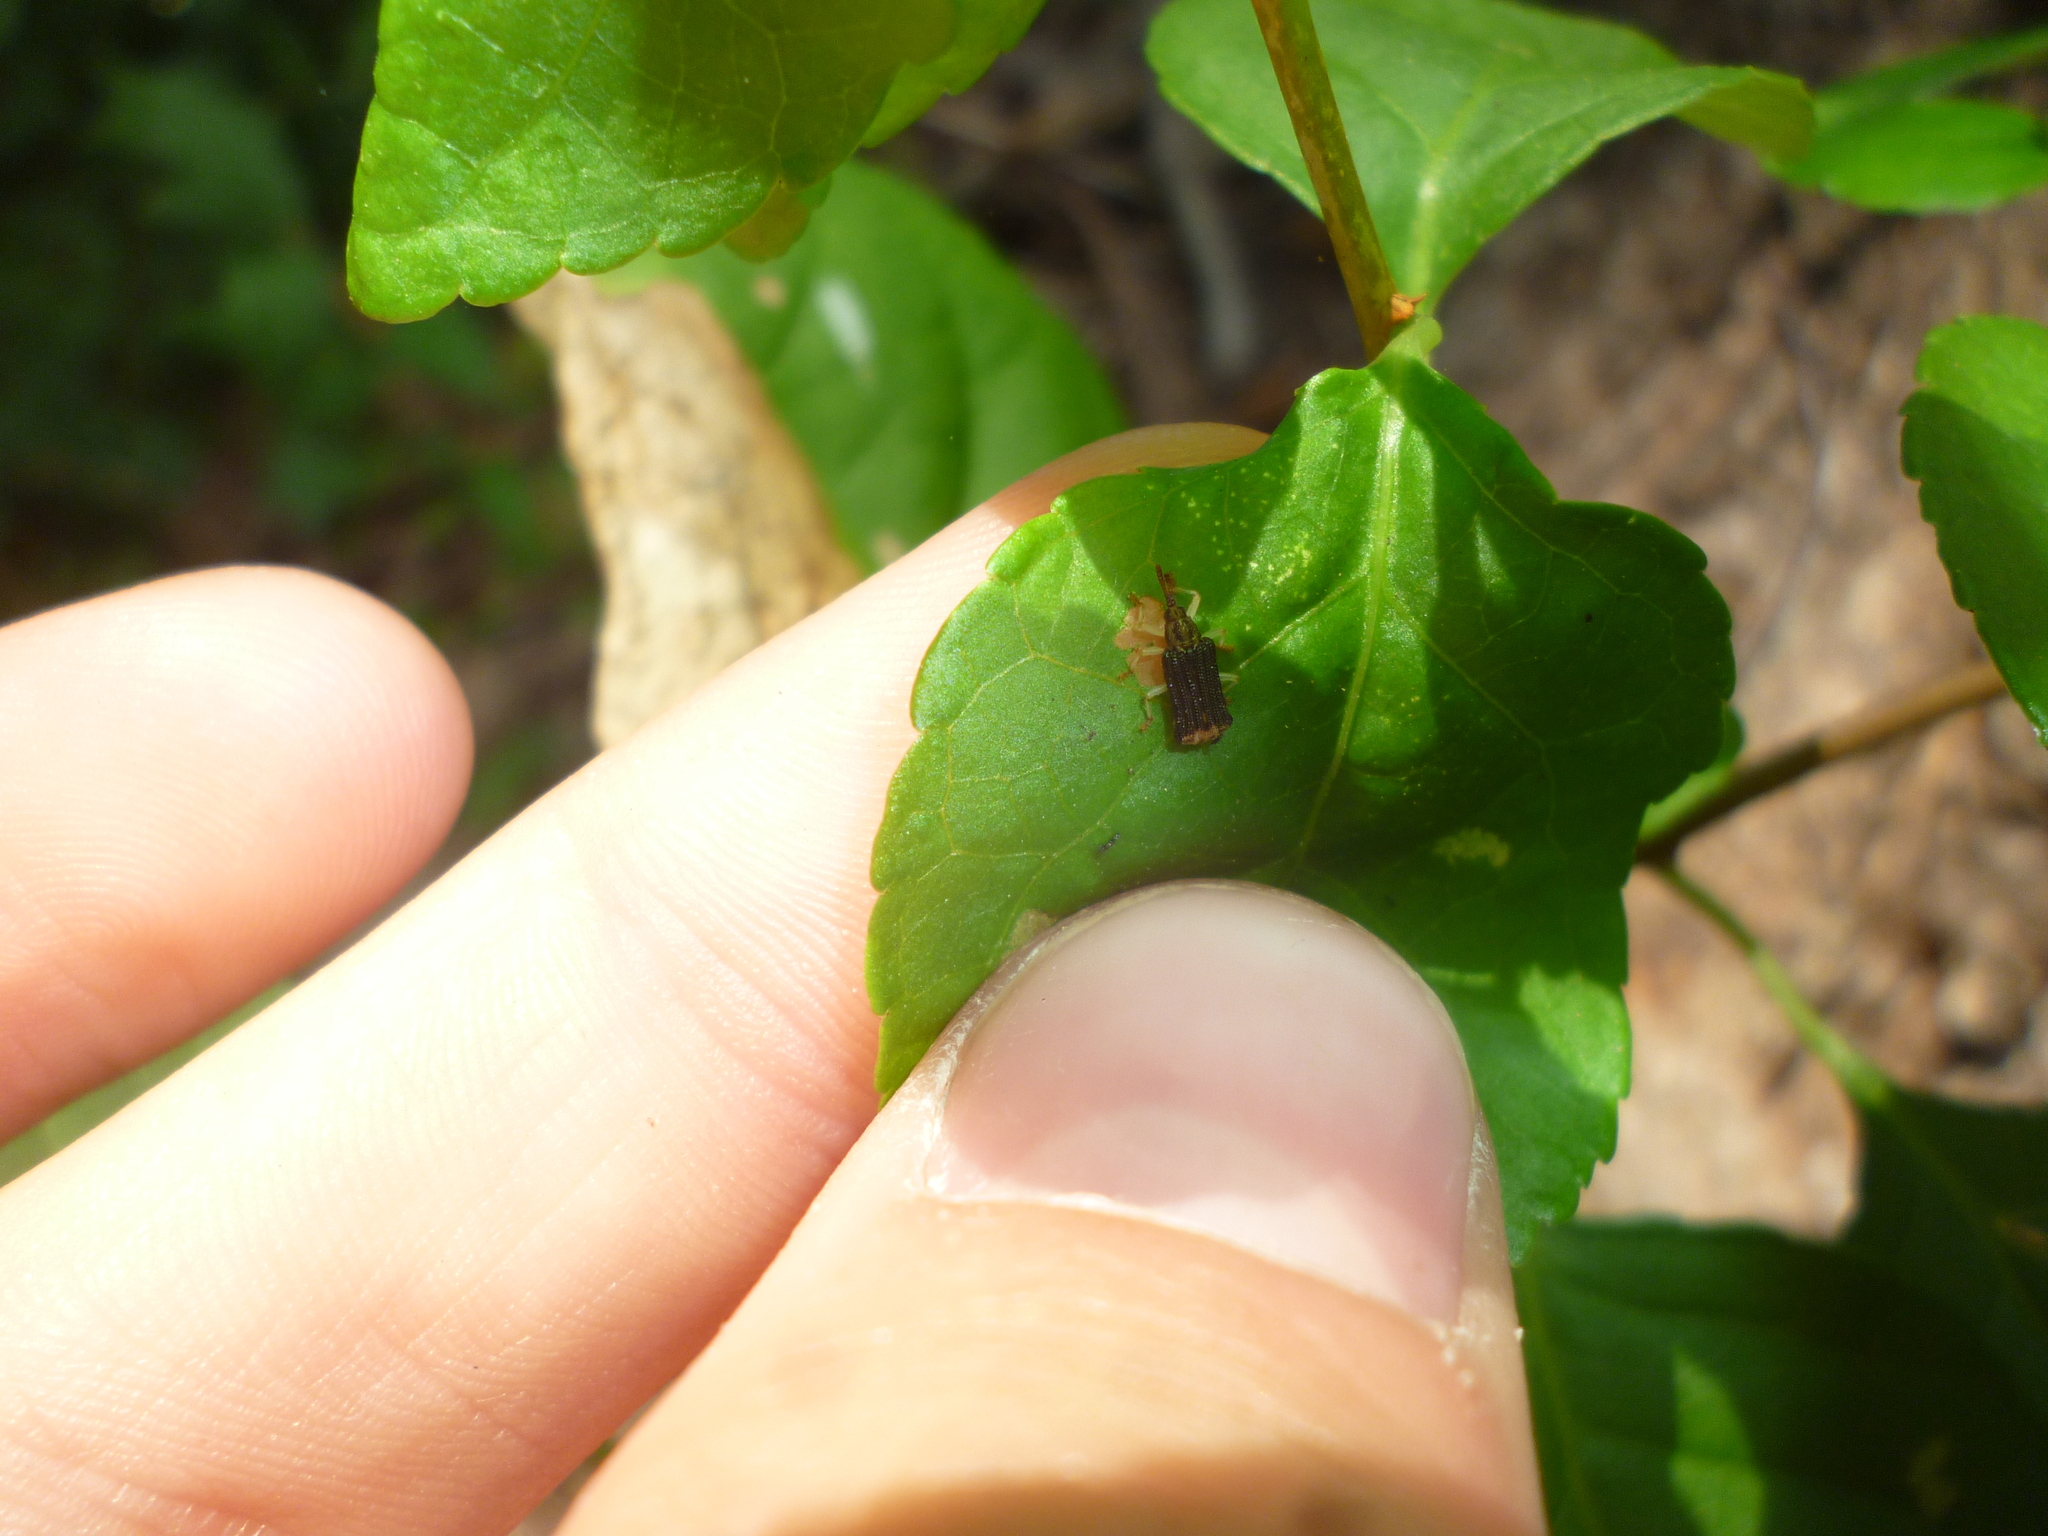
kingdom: Plantae
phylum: Tracheophyta
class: Magnoliopsida
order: Celastrales
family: Celastraceae
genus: Celastrus
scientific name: Celastrus orbiculatus
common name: Oriental bittersweet
